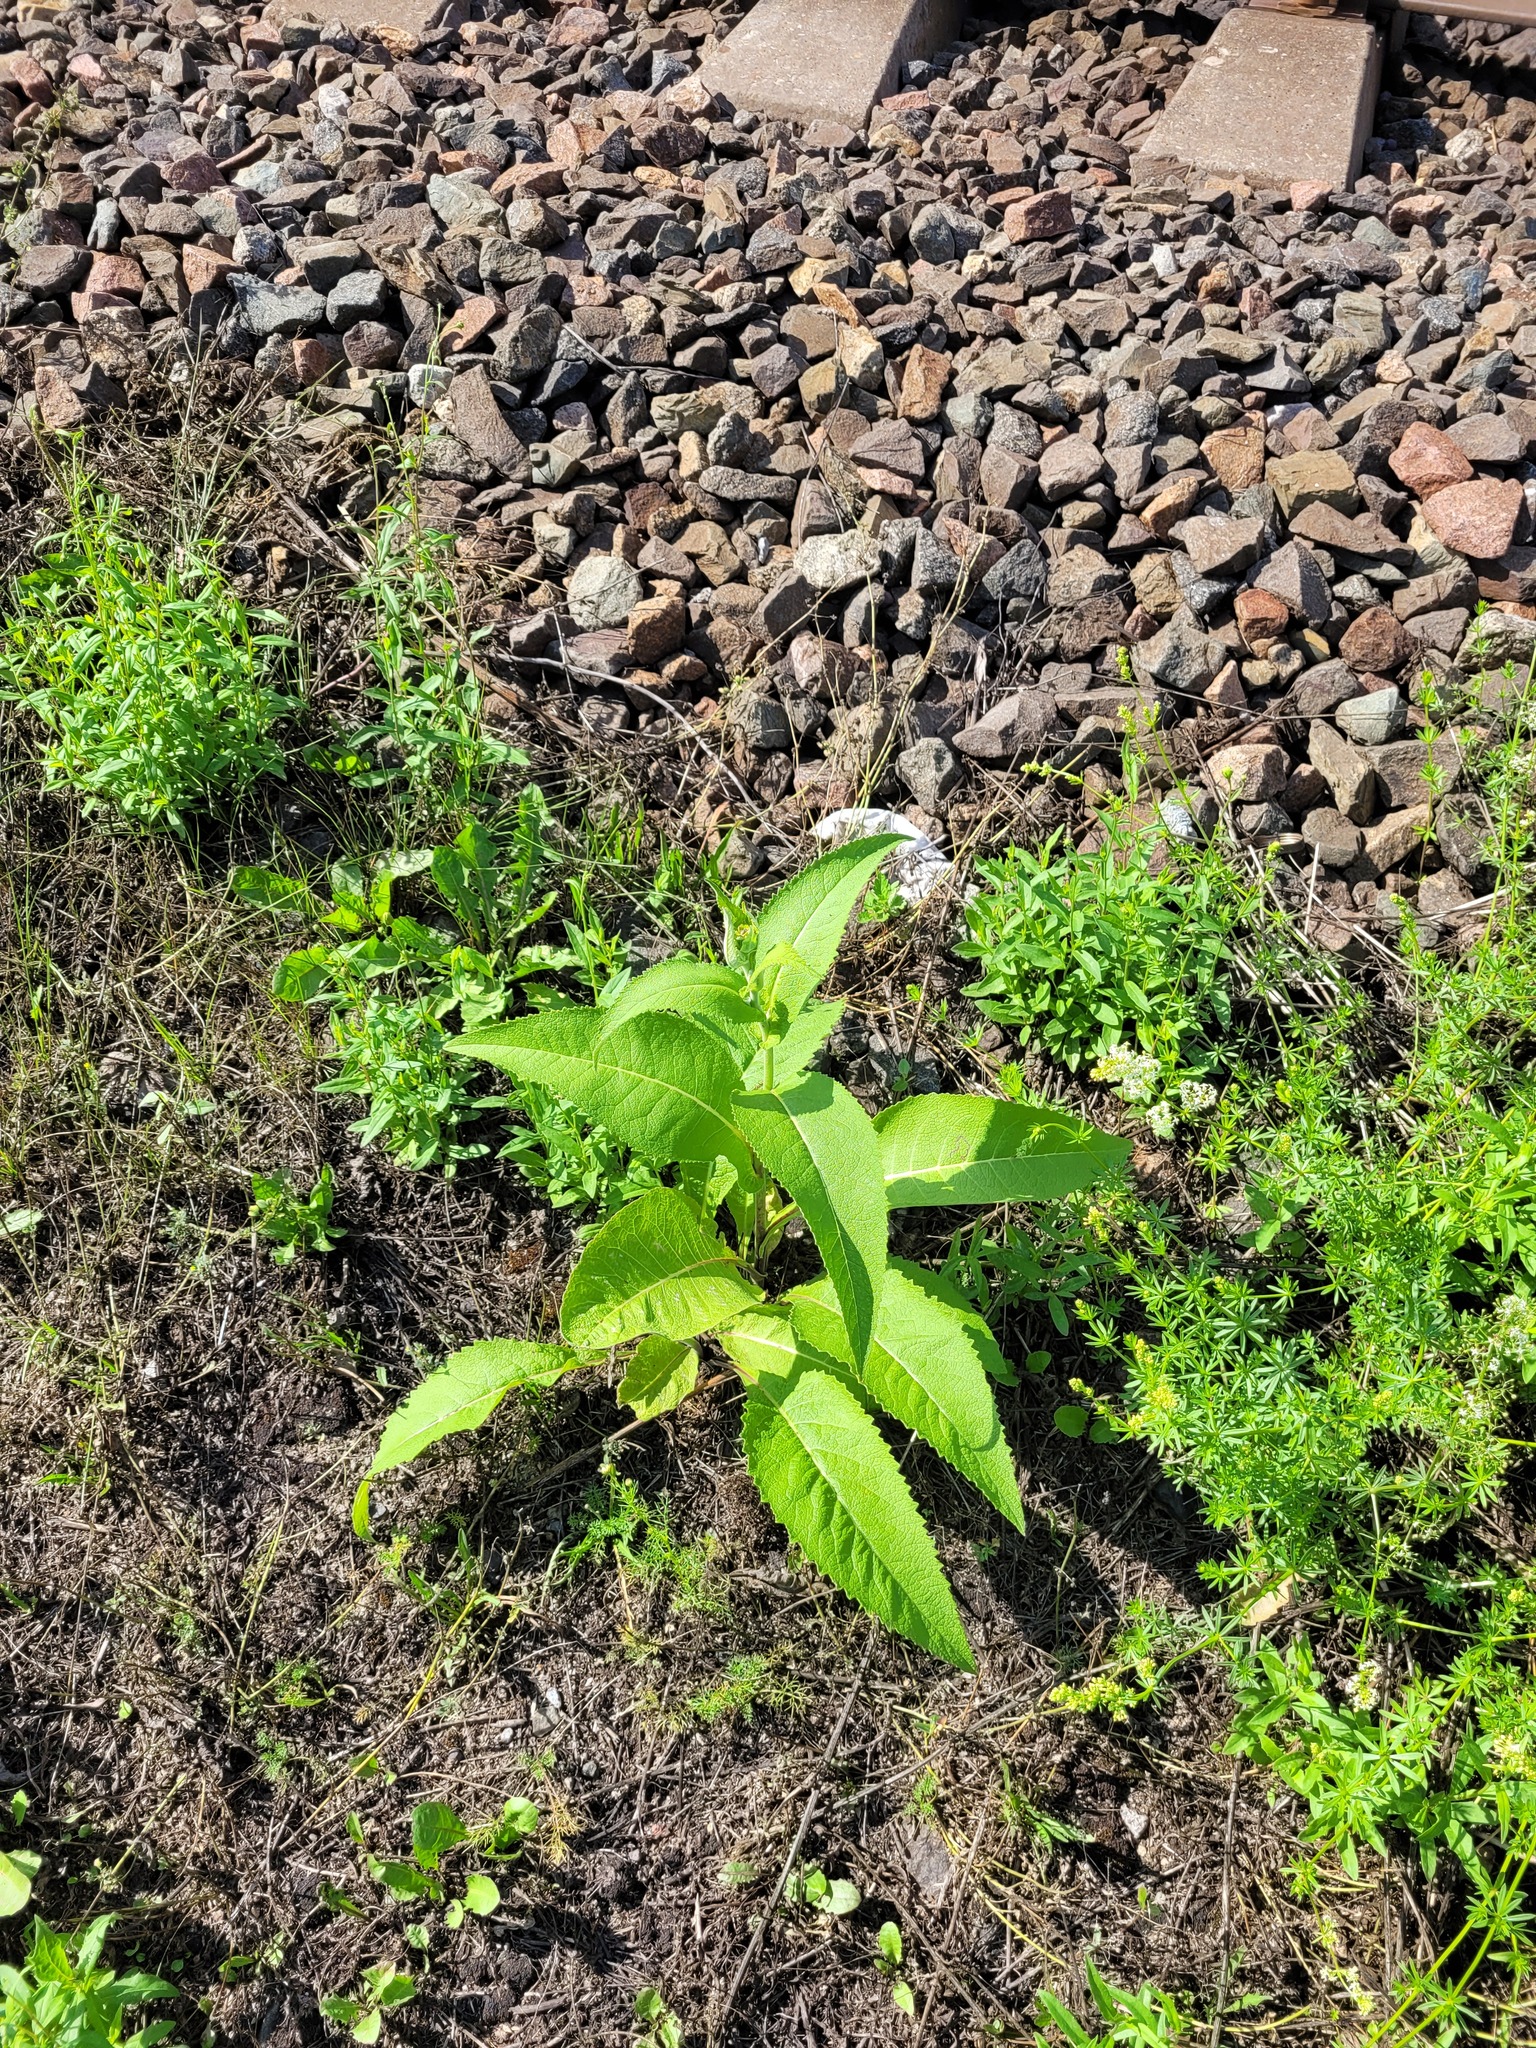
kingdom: Plantae
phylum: Tracheophyta
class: Magnoliopsida
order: Asterales
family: Asteraceae
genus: Inula
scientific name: Inula helenium
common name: Elecampane
